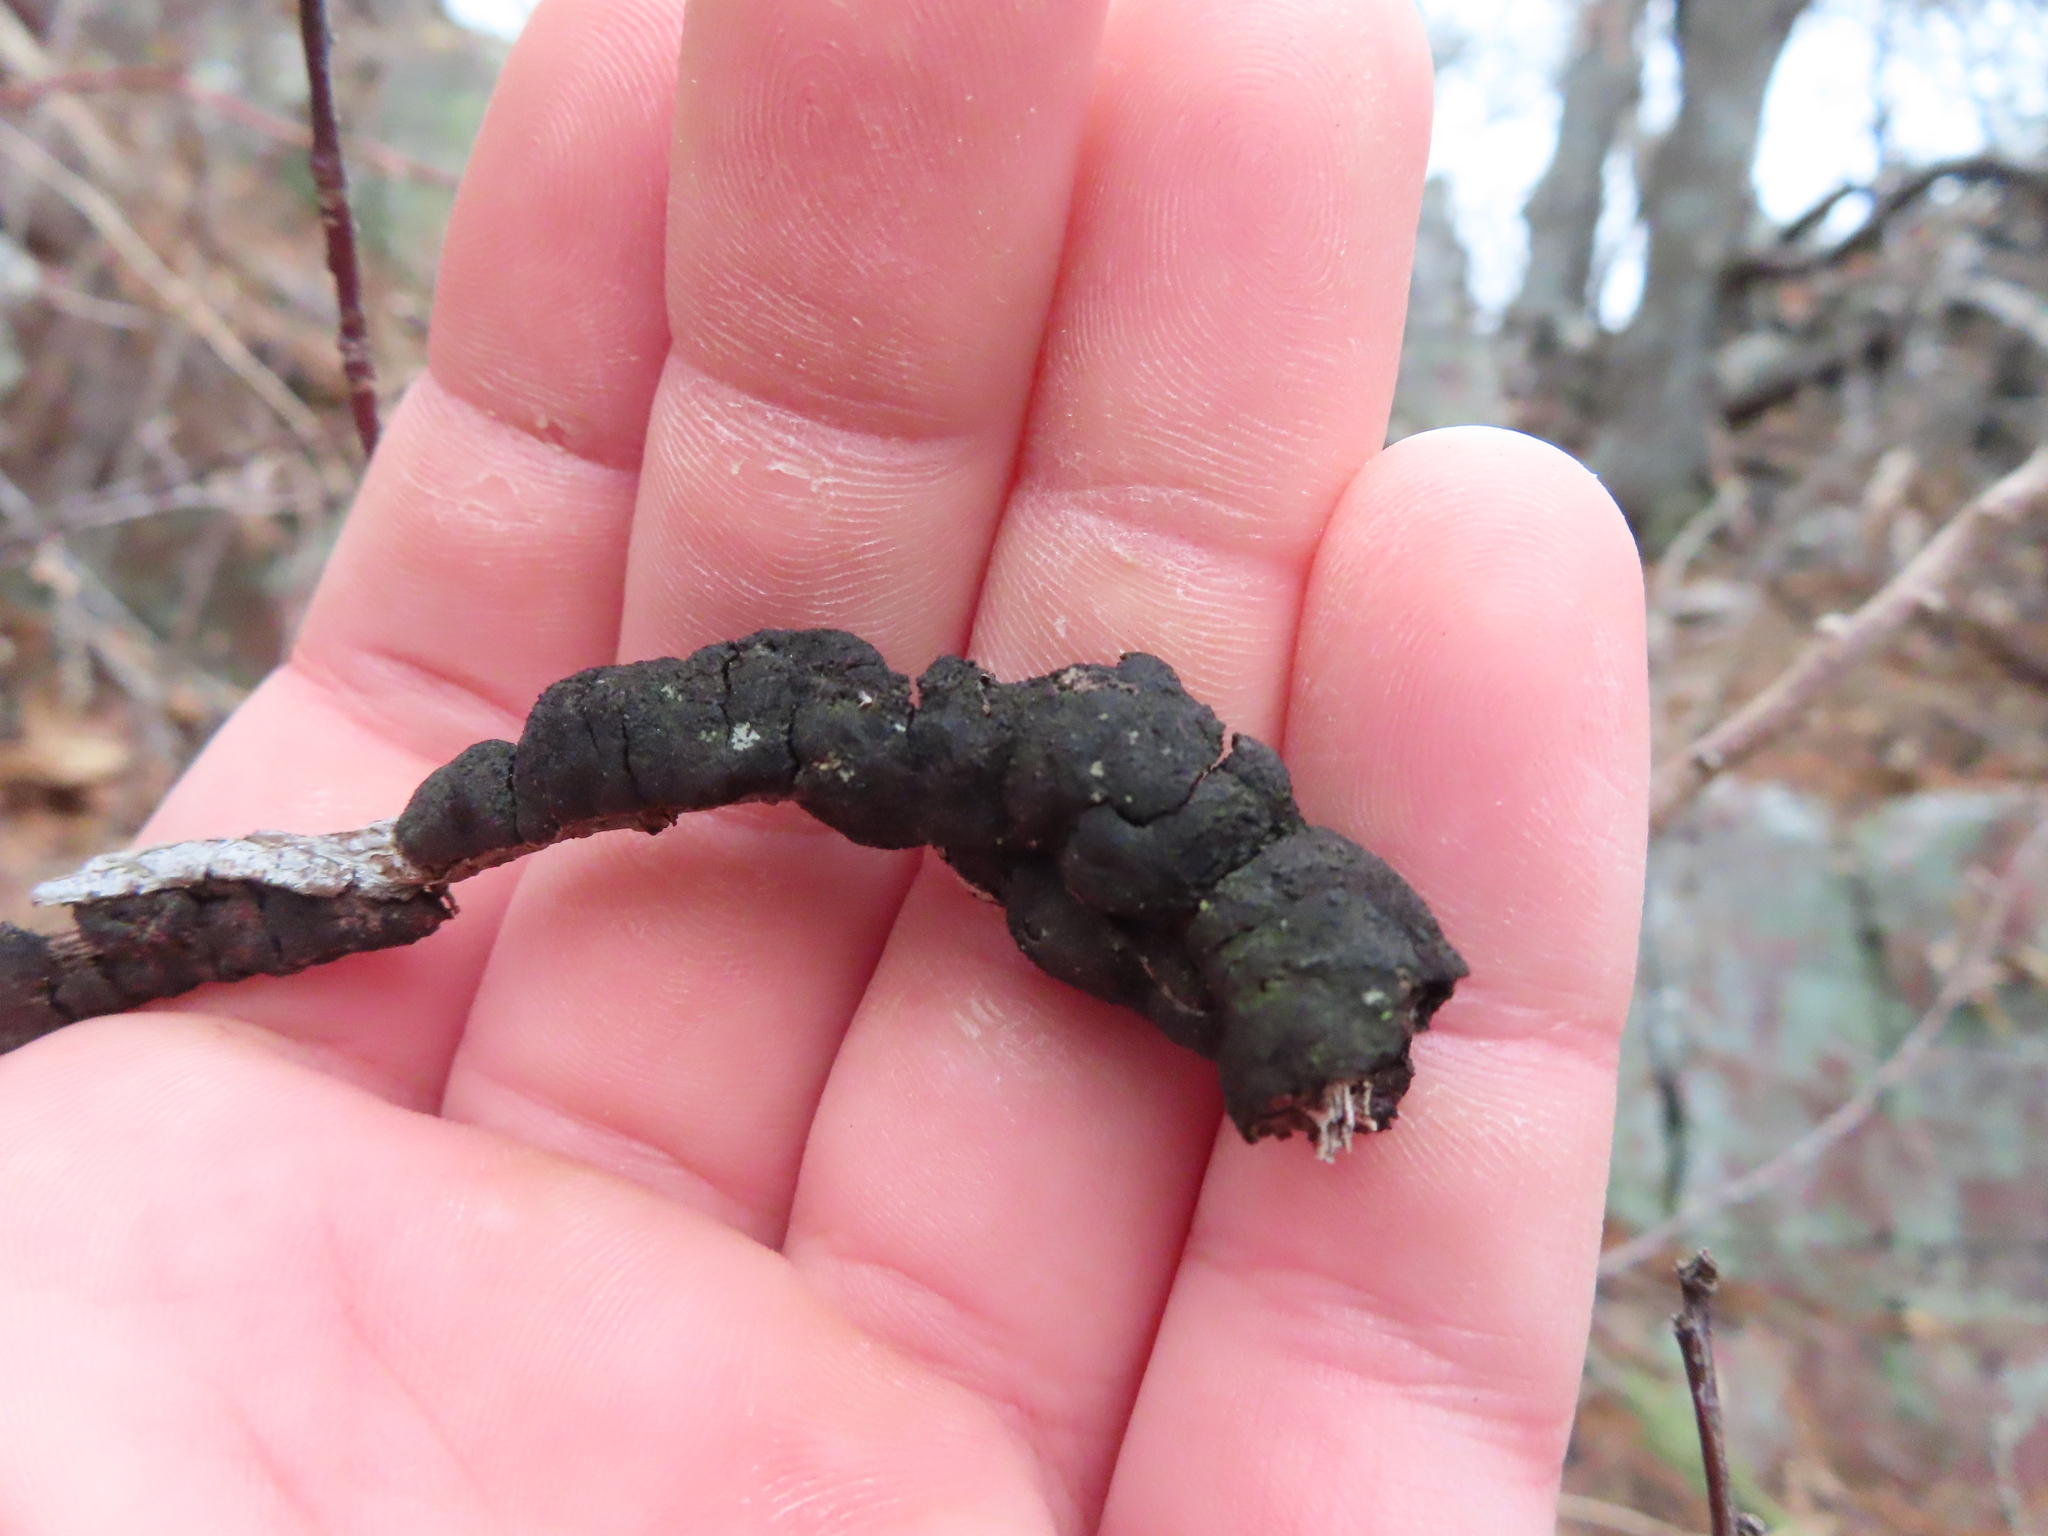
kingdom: Fungi
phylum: Ascomycota
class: Dothideomycetes
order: Venturiales
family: Venturiaceae
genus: Apiosporina
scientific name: Apiosporina morbosa
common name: Black knot
